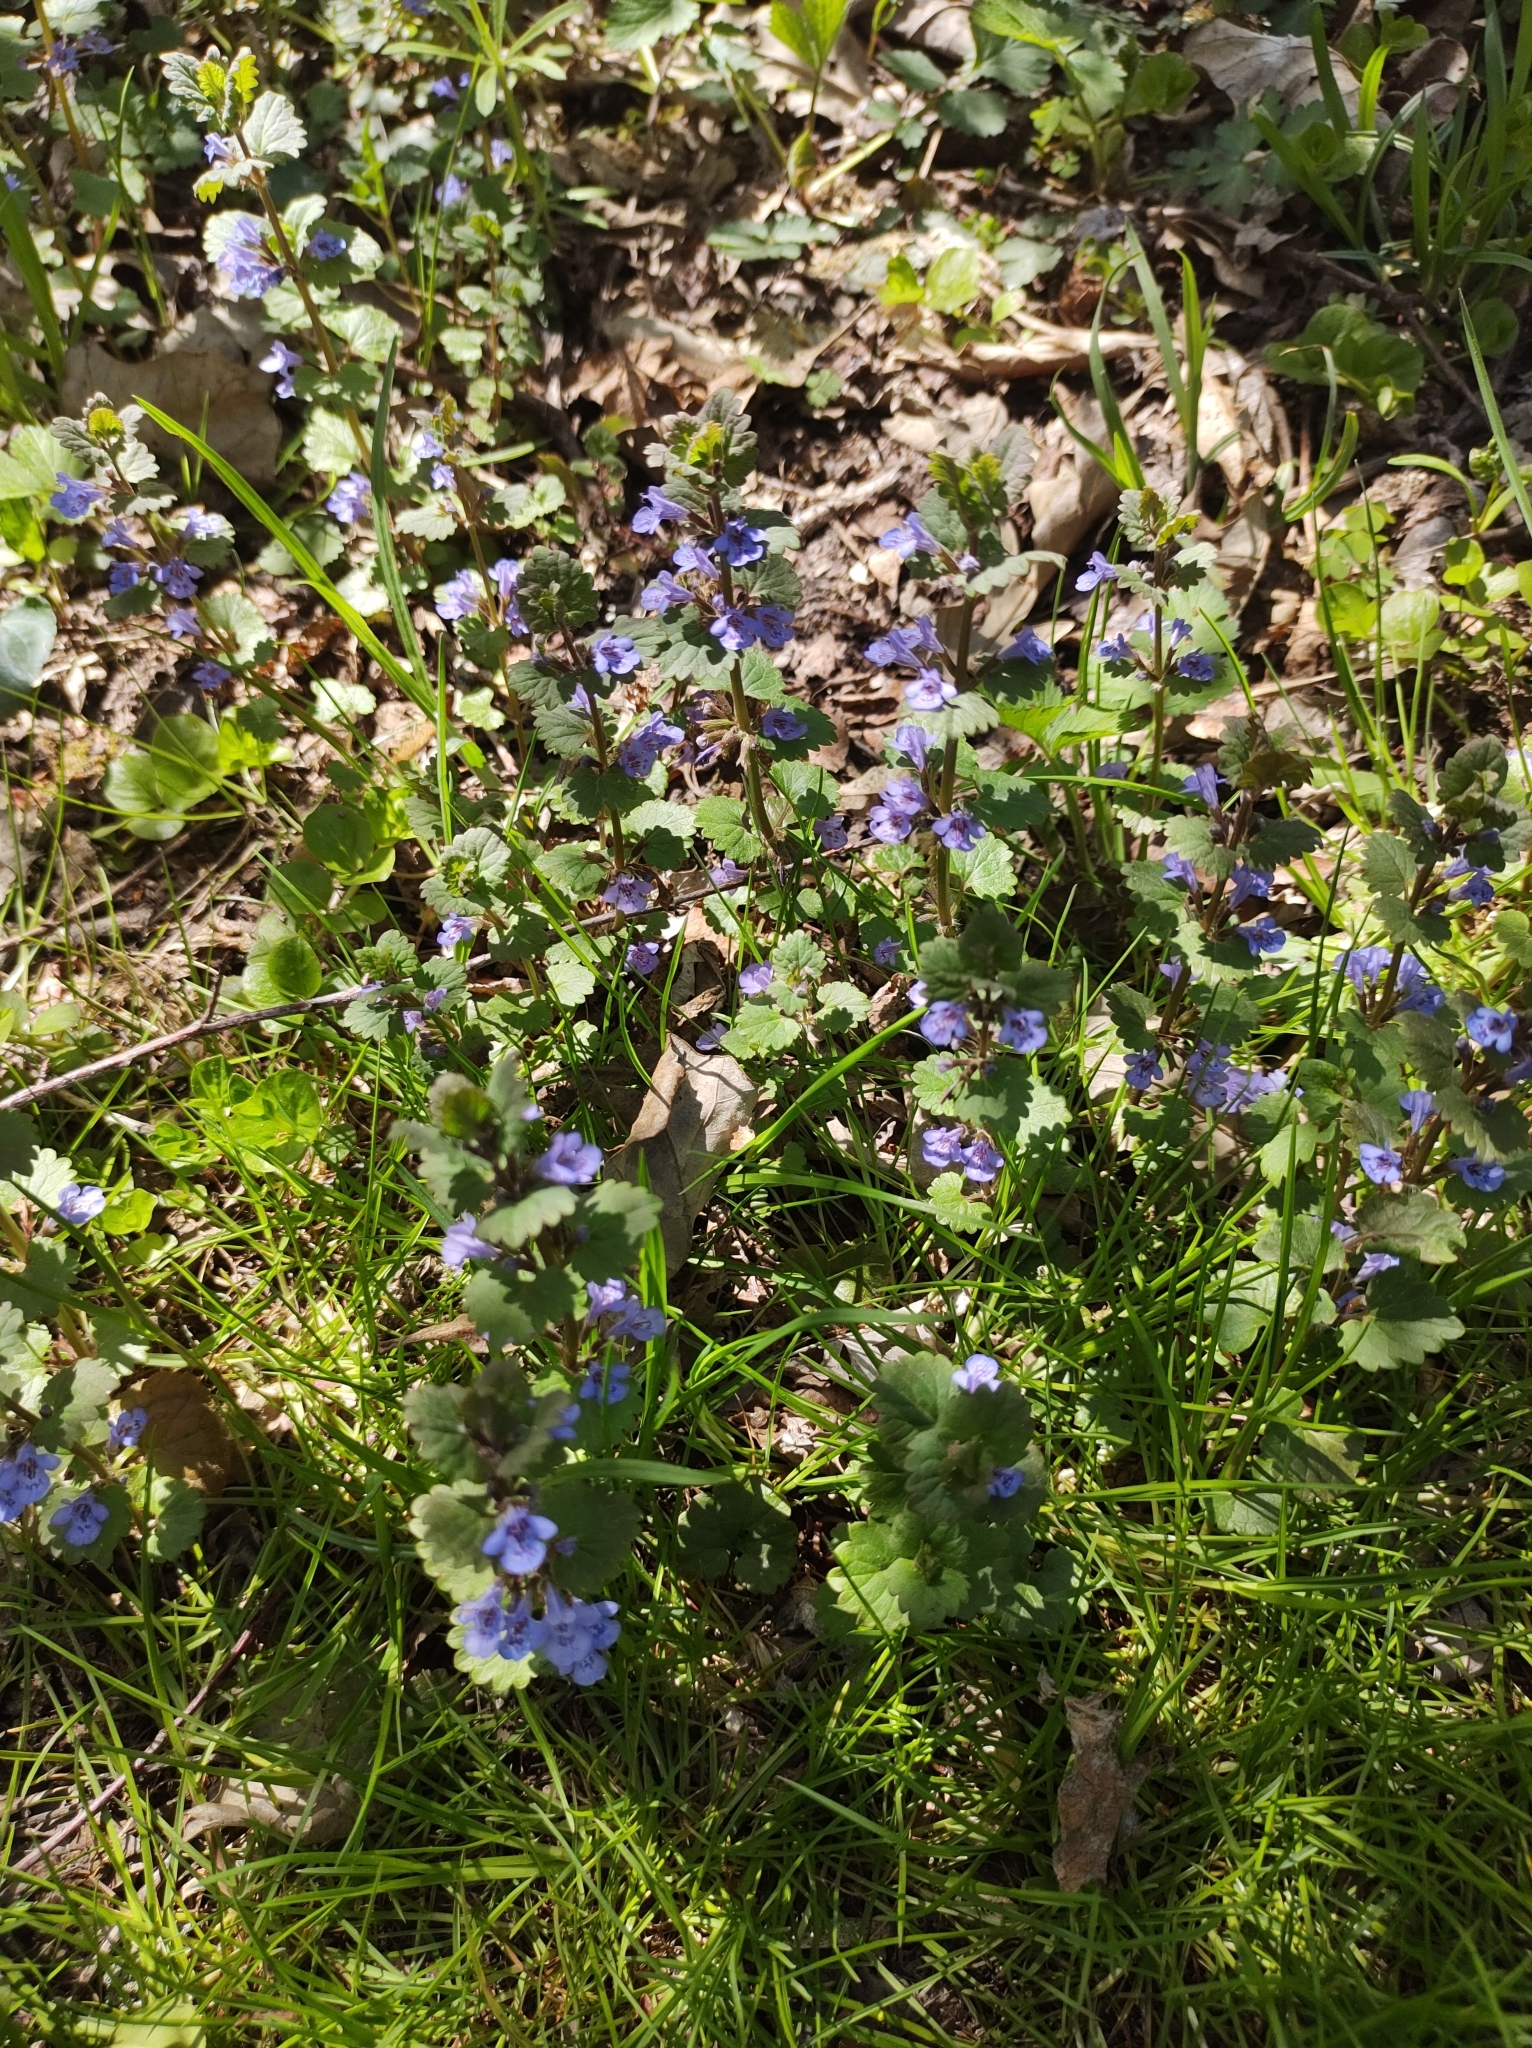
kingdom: Plantae
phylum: Tracheophyta
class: Magnoliopsida
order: Lamiales
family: Lamiaceae
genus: Glechoma
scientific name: Glechoma hederacea
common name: Ground ivy
